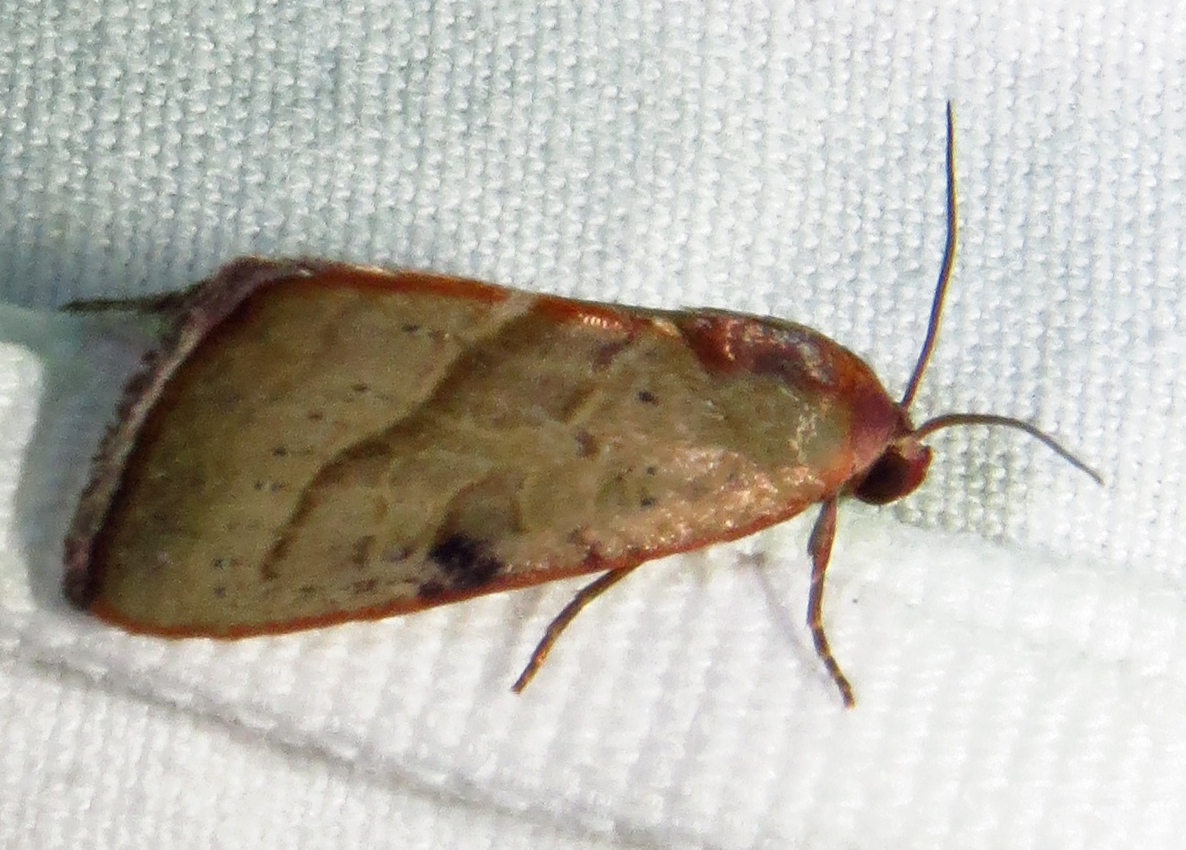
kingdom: Animalia
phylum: Arthropoda
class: Insecta
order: Lepidoptera
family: Noctuidae
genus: Galgula
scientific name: Galgula partita
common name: Wedgeling
